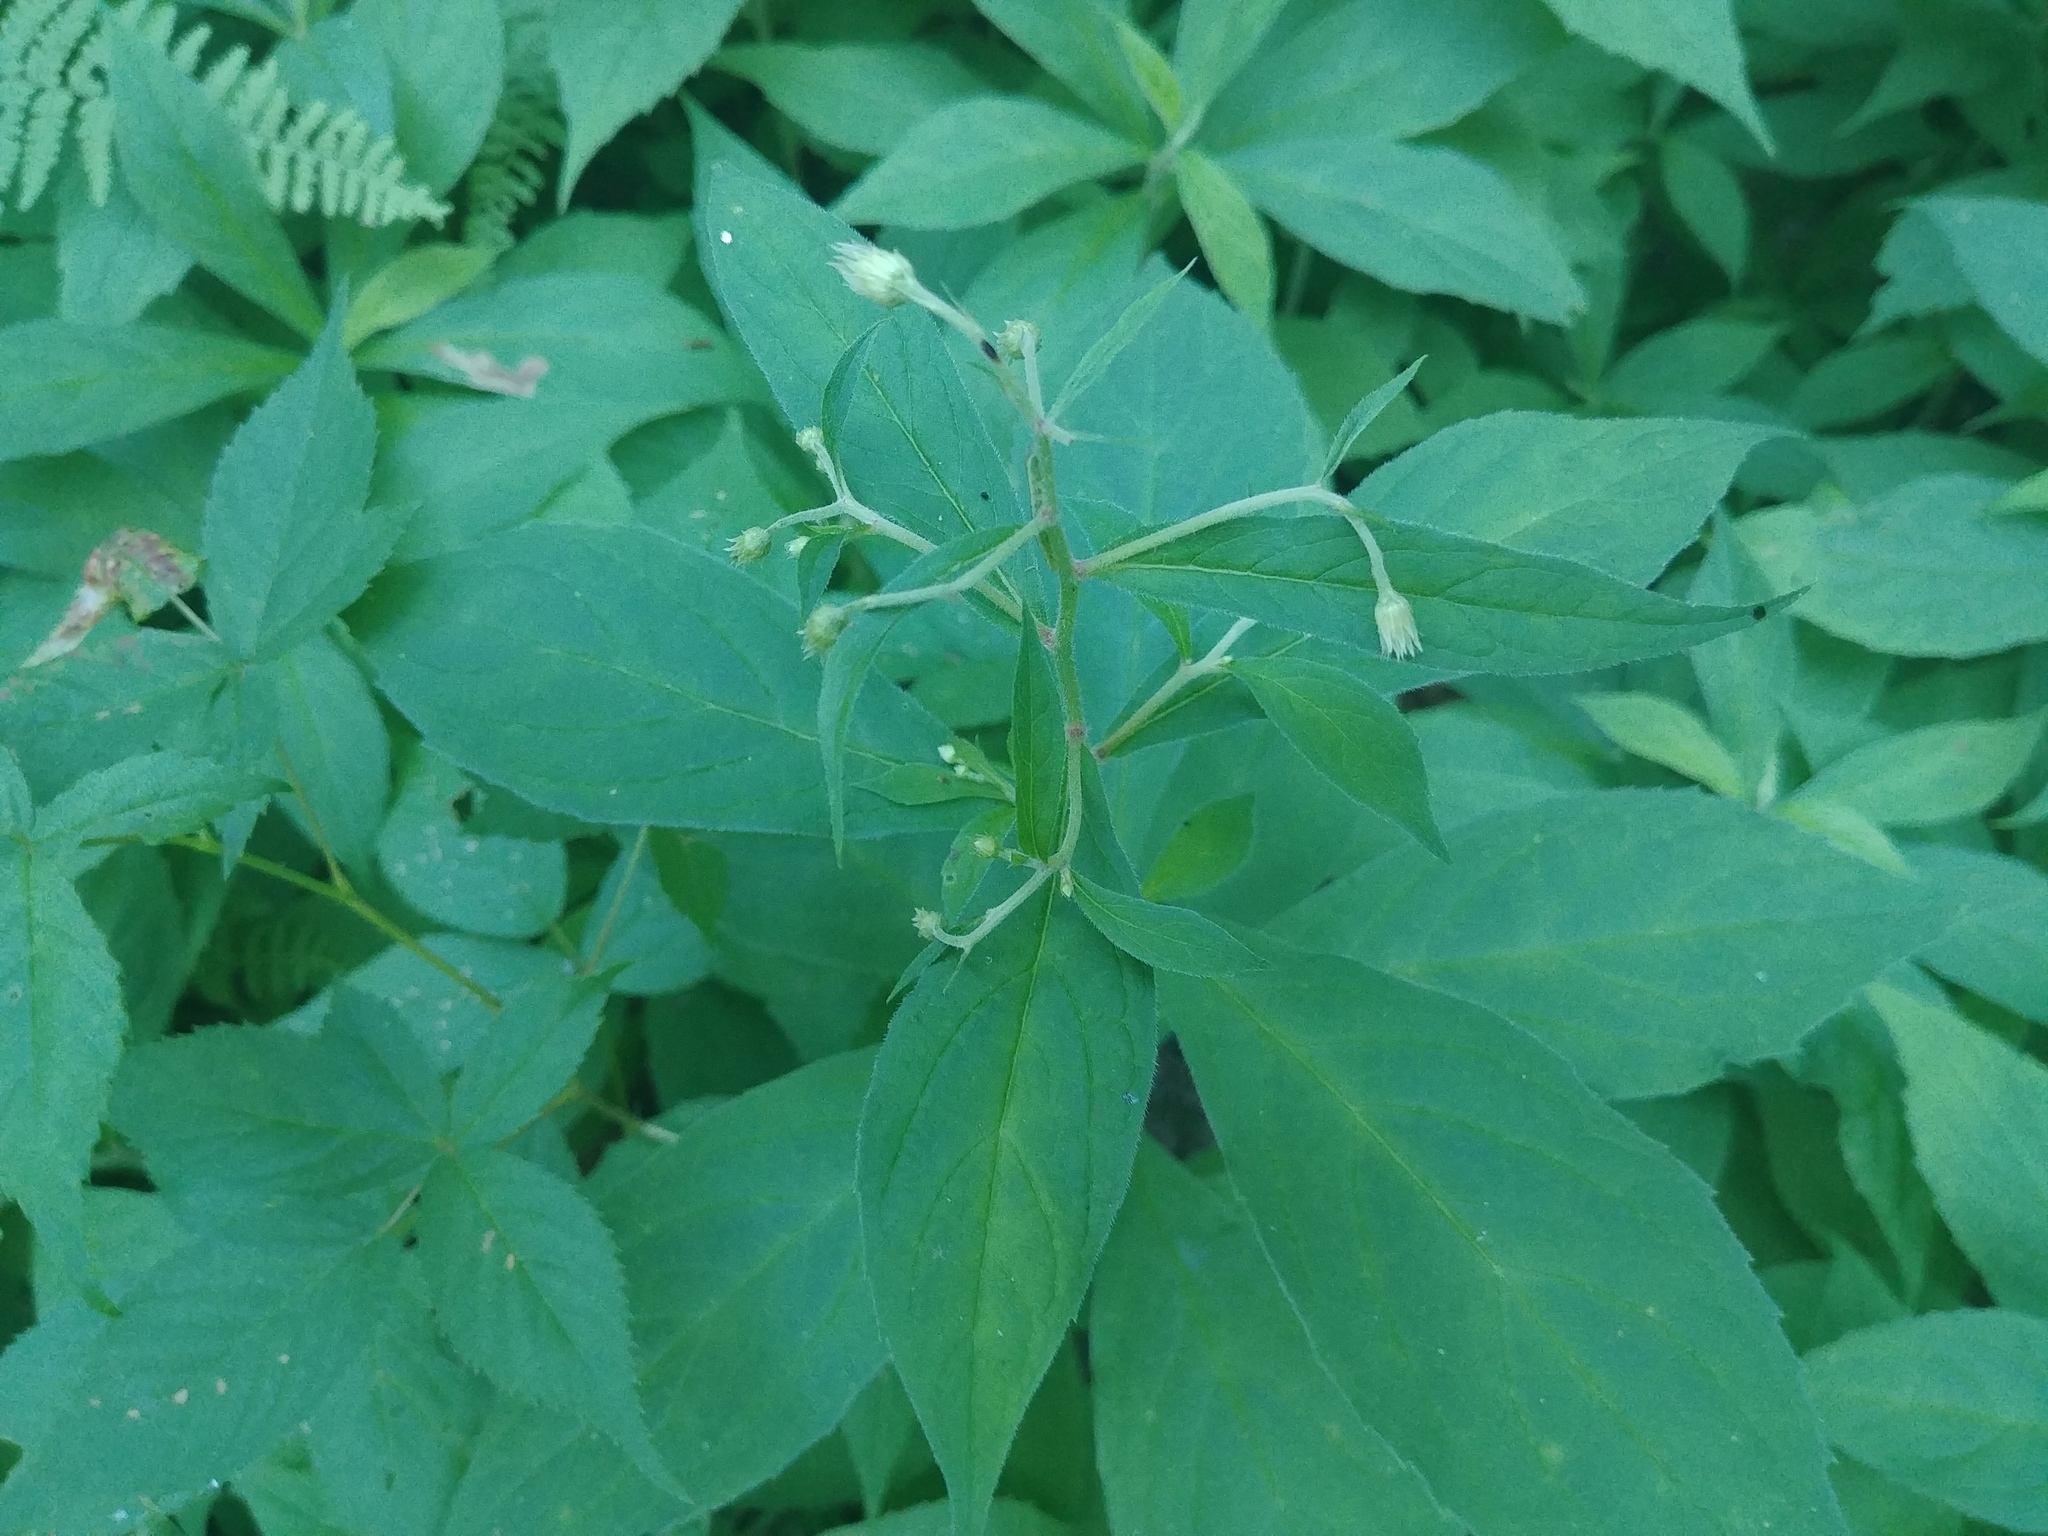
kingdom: Plantae
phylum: Tracheophyta
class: Magnoliopsida
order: Asterales
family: Asteraceae
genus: Oclemena
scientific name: Oclemena acuminata
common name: Mountain aster
